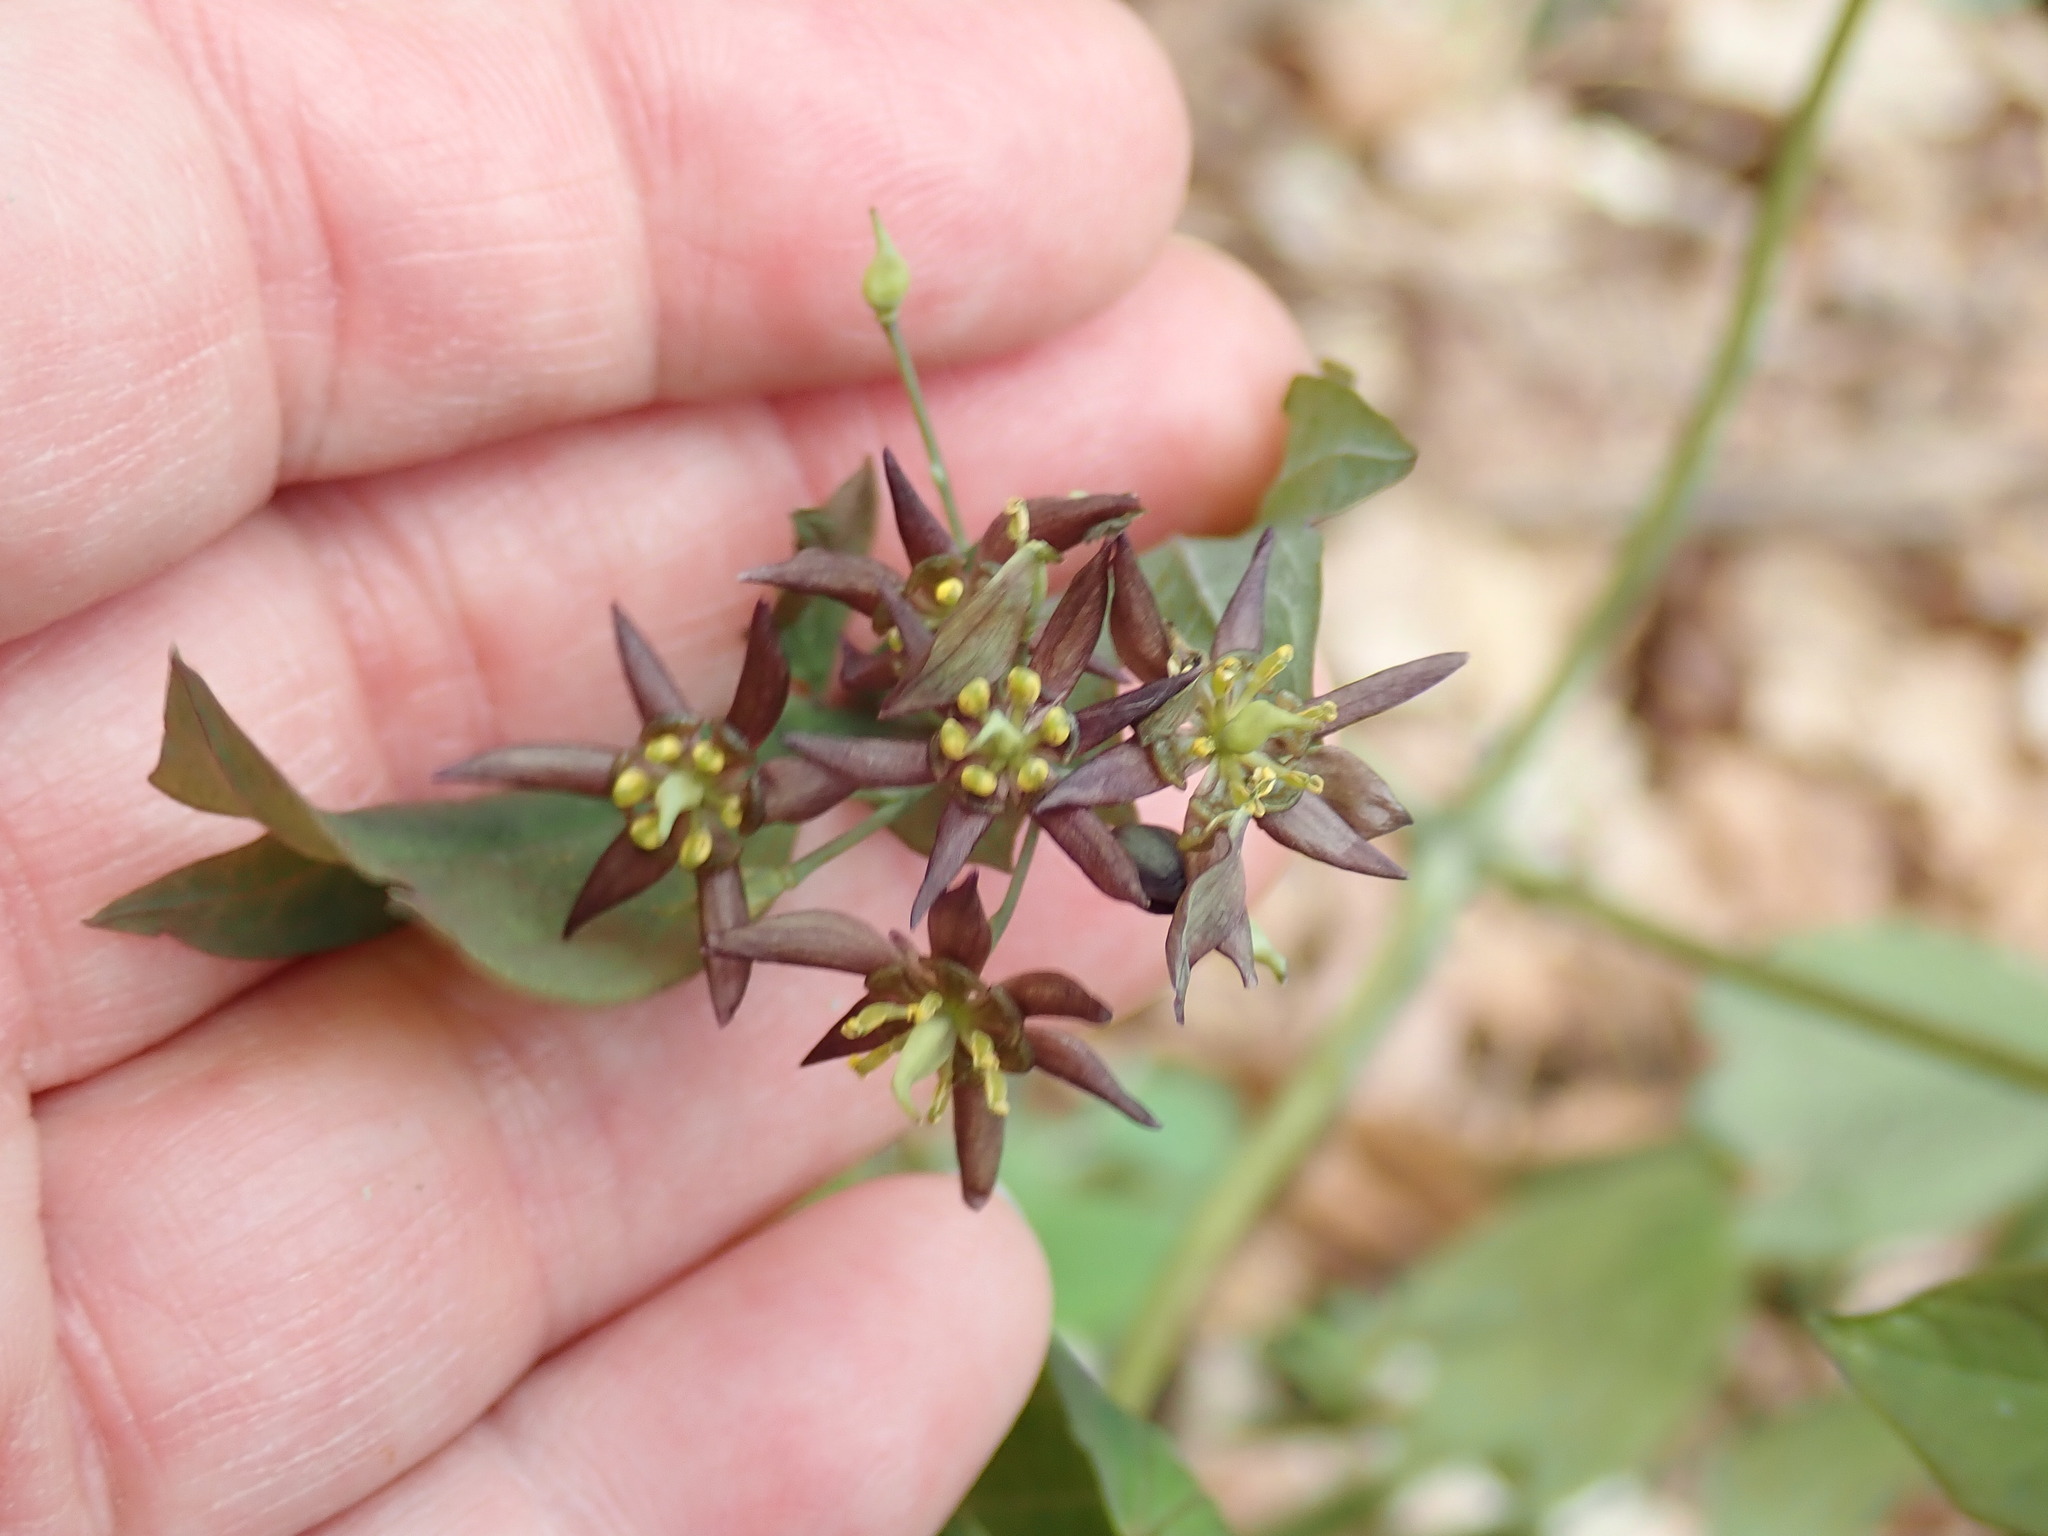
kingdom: Plantae
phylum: Tracheophyta
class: Magnoliopsida
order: Ranunculales
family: Berberidaceae
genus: Caulophyllum
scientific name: Caulophyllum giganteum
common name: Blue cohosh
